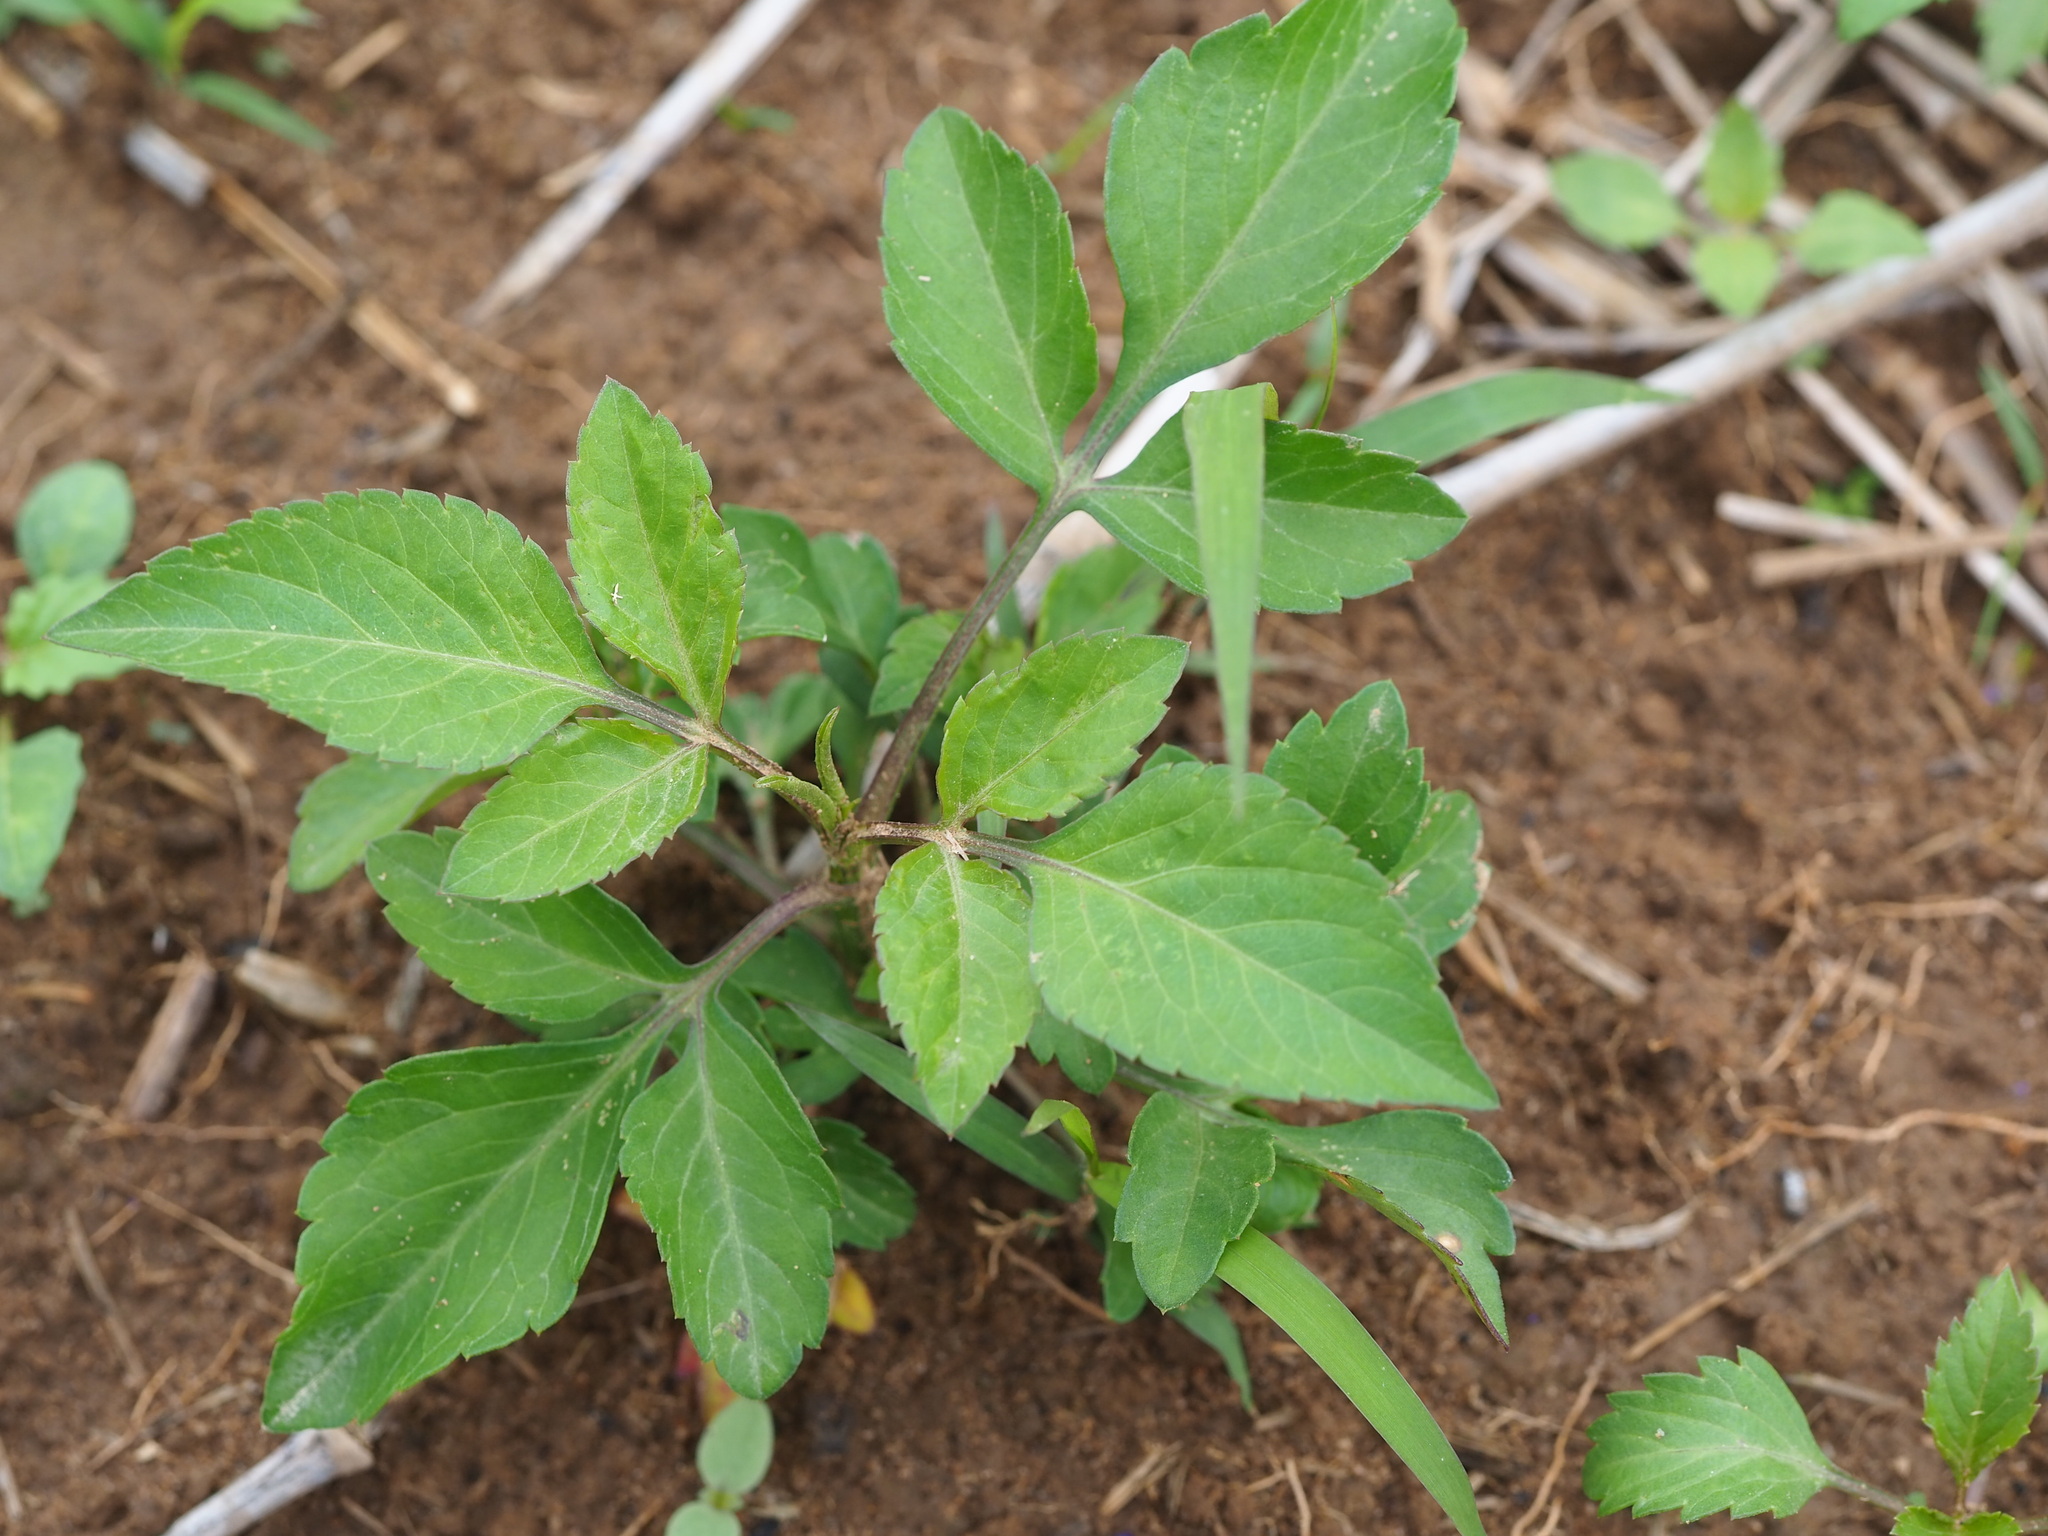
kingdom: Plantae
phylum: Tracheophyta
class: Magnoliopsida
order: Asterales
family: Asteraceae
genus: Bidens
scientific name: Bidens alba
